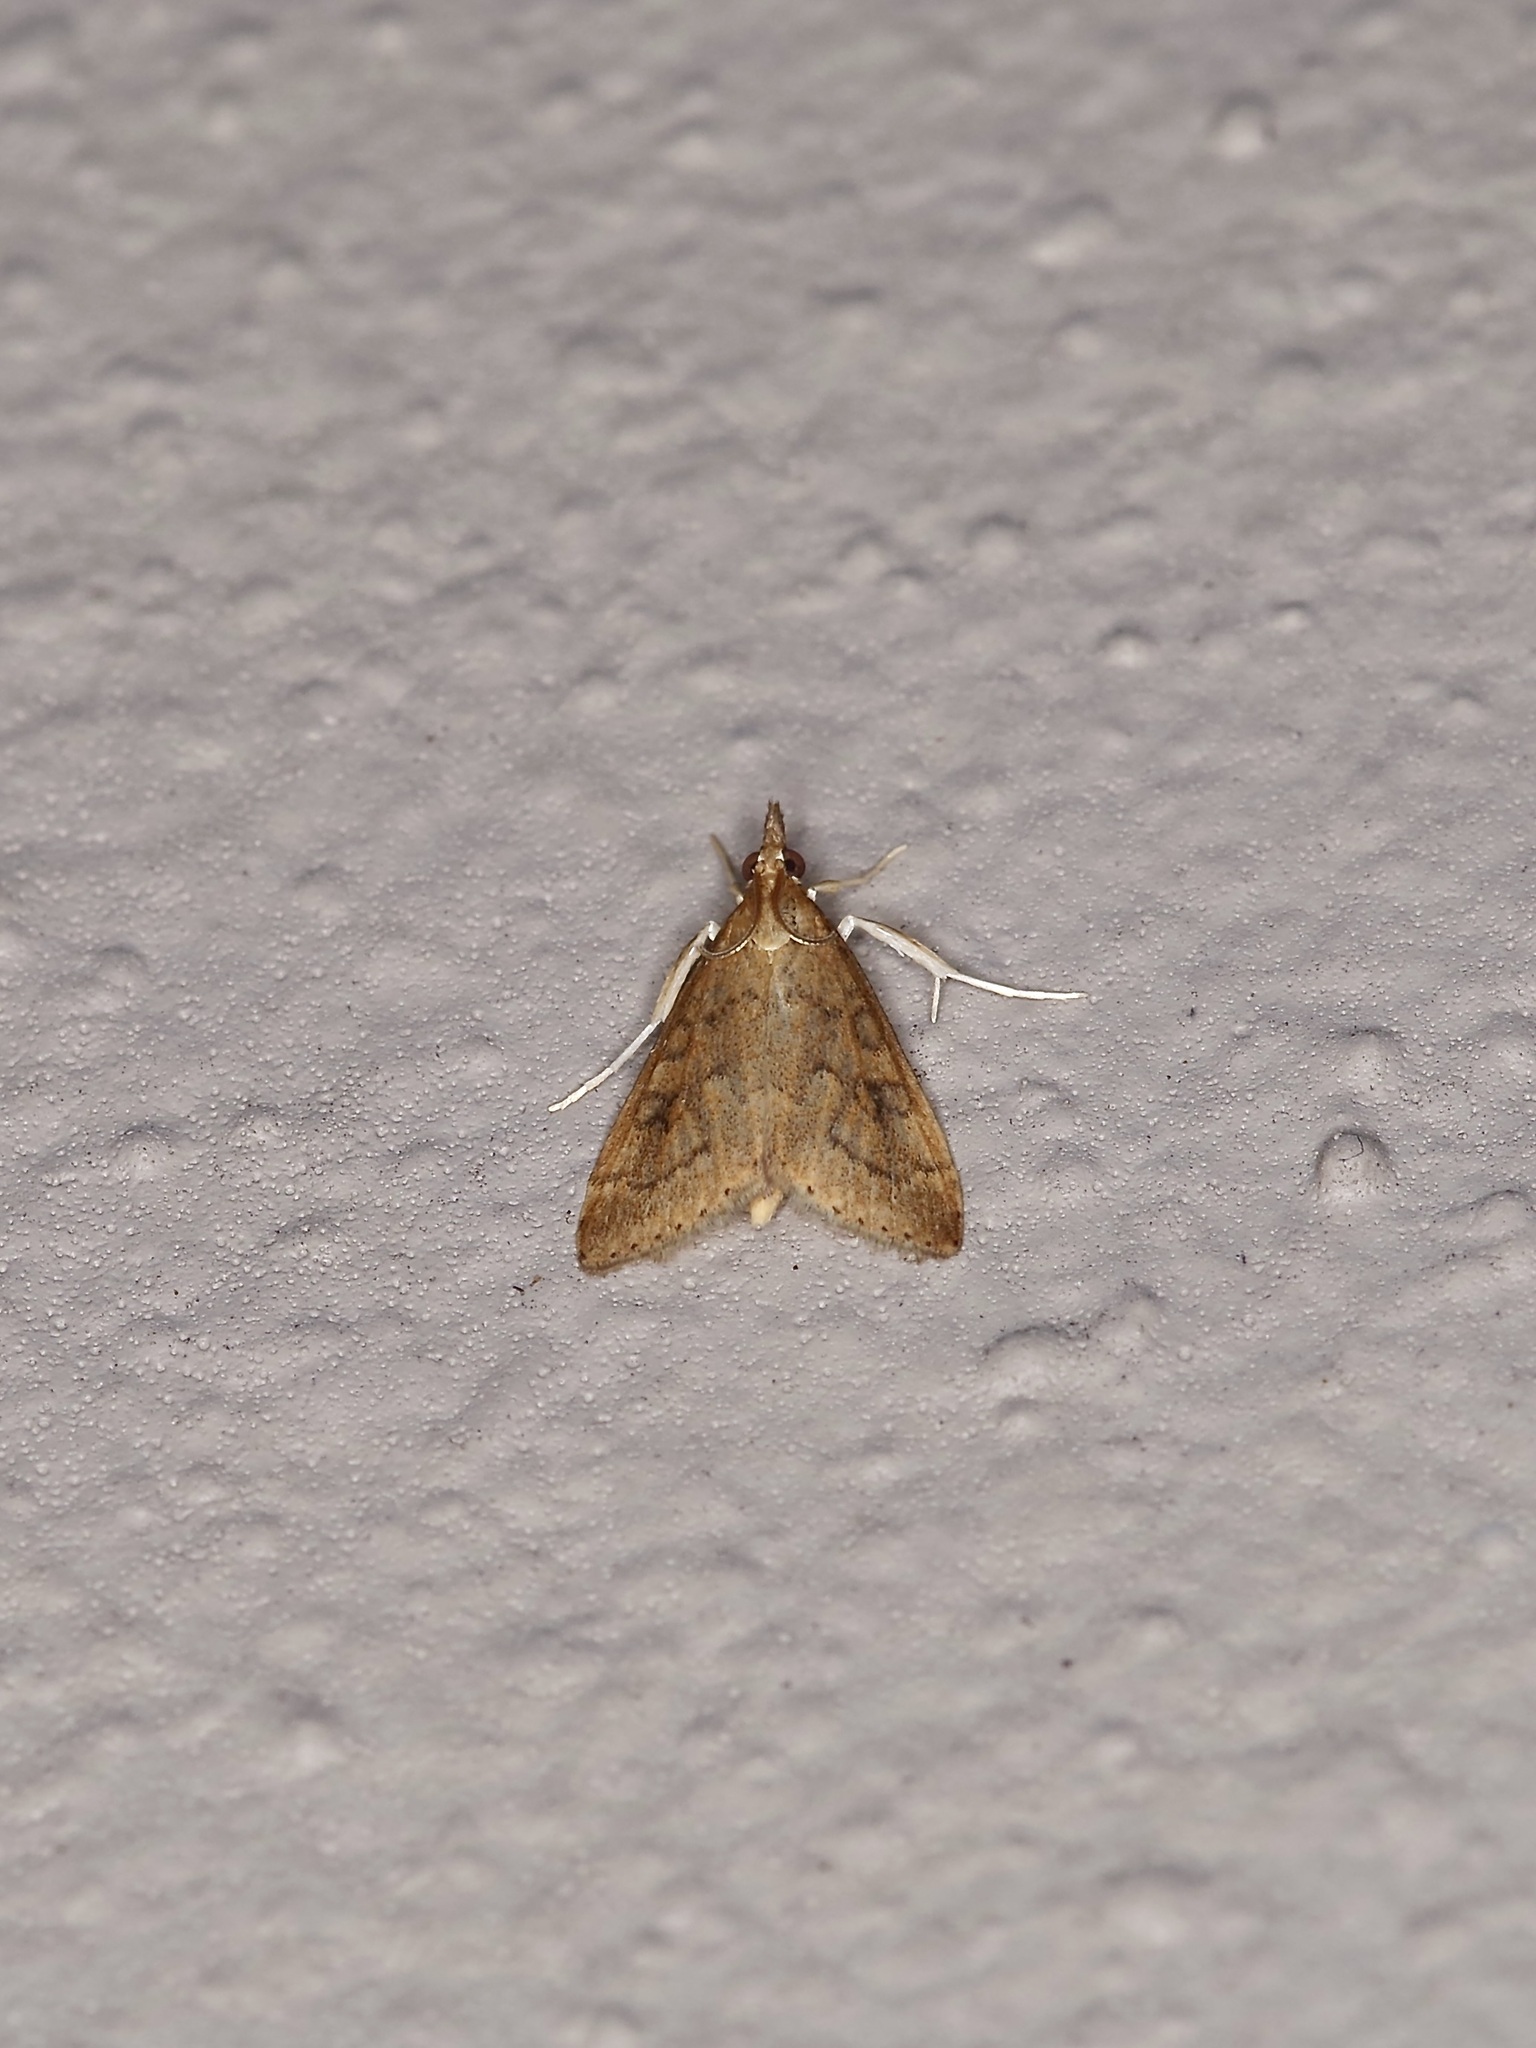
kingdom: Animalia
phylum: Arthropoda
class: Insecta
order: Lepidoptera
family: Crambidae
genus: Udea
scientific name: Udea rubigalis
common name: Celery leaftier moth
